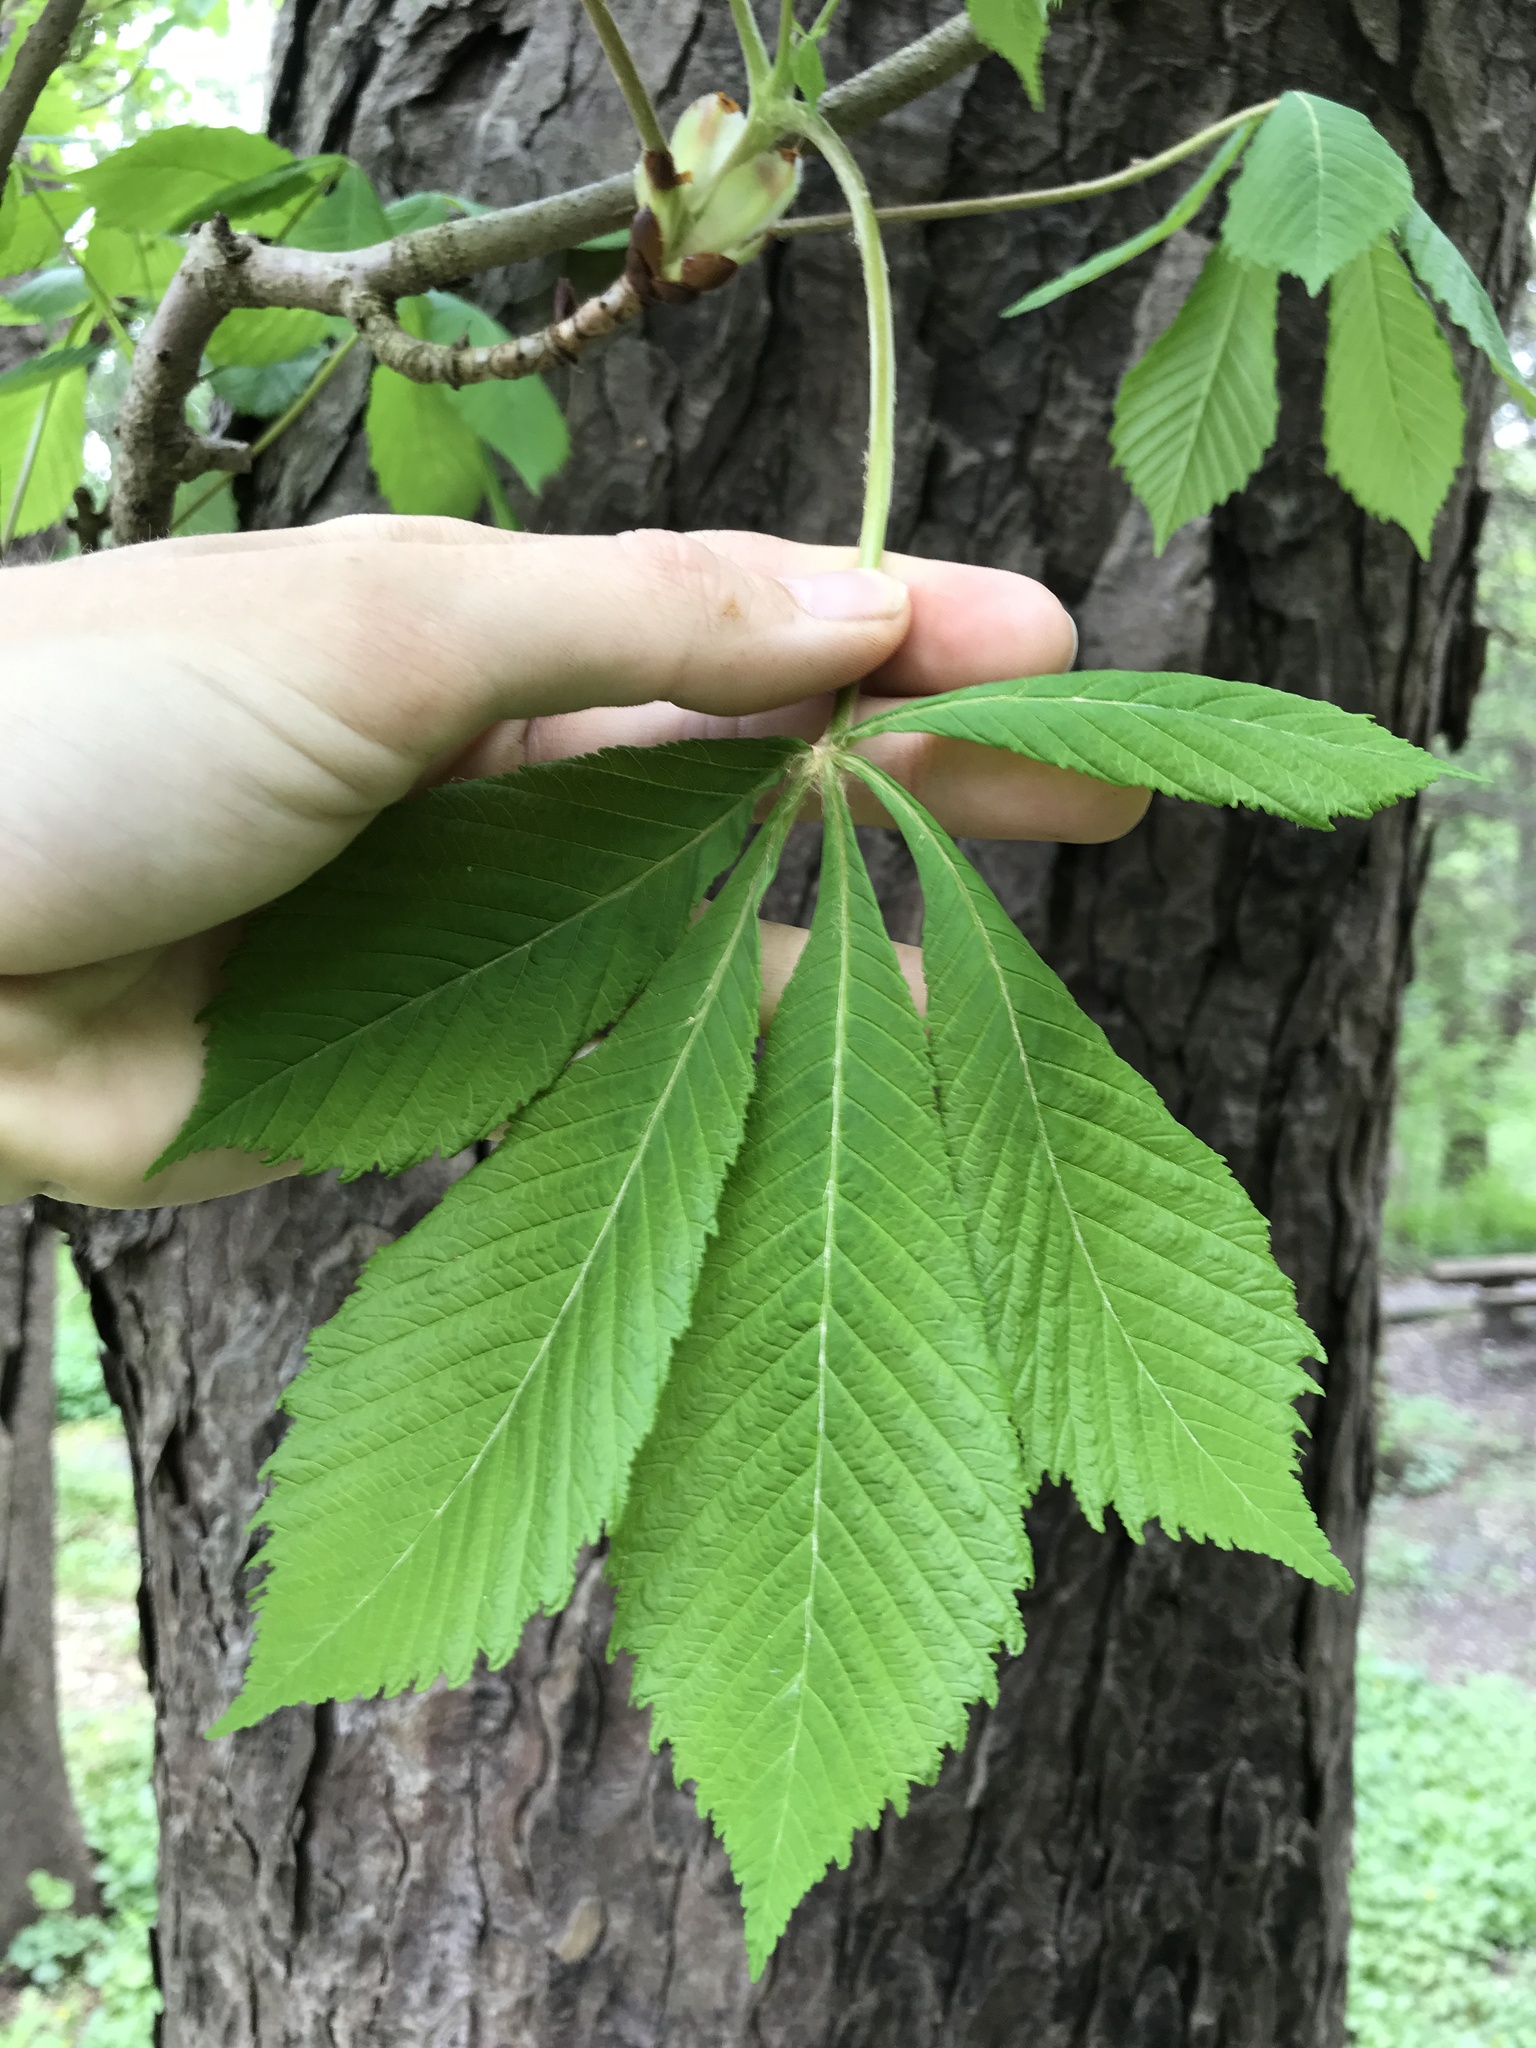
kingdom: Plantae
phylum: Tracheophyta
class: Magnoliopsida
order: Sapindales
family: Sapindaceae
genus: Aesculus
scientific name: Aesculus hippocastanum
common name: Horse-chestnut
